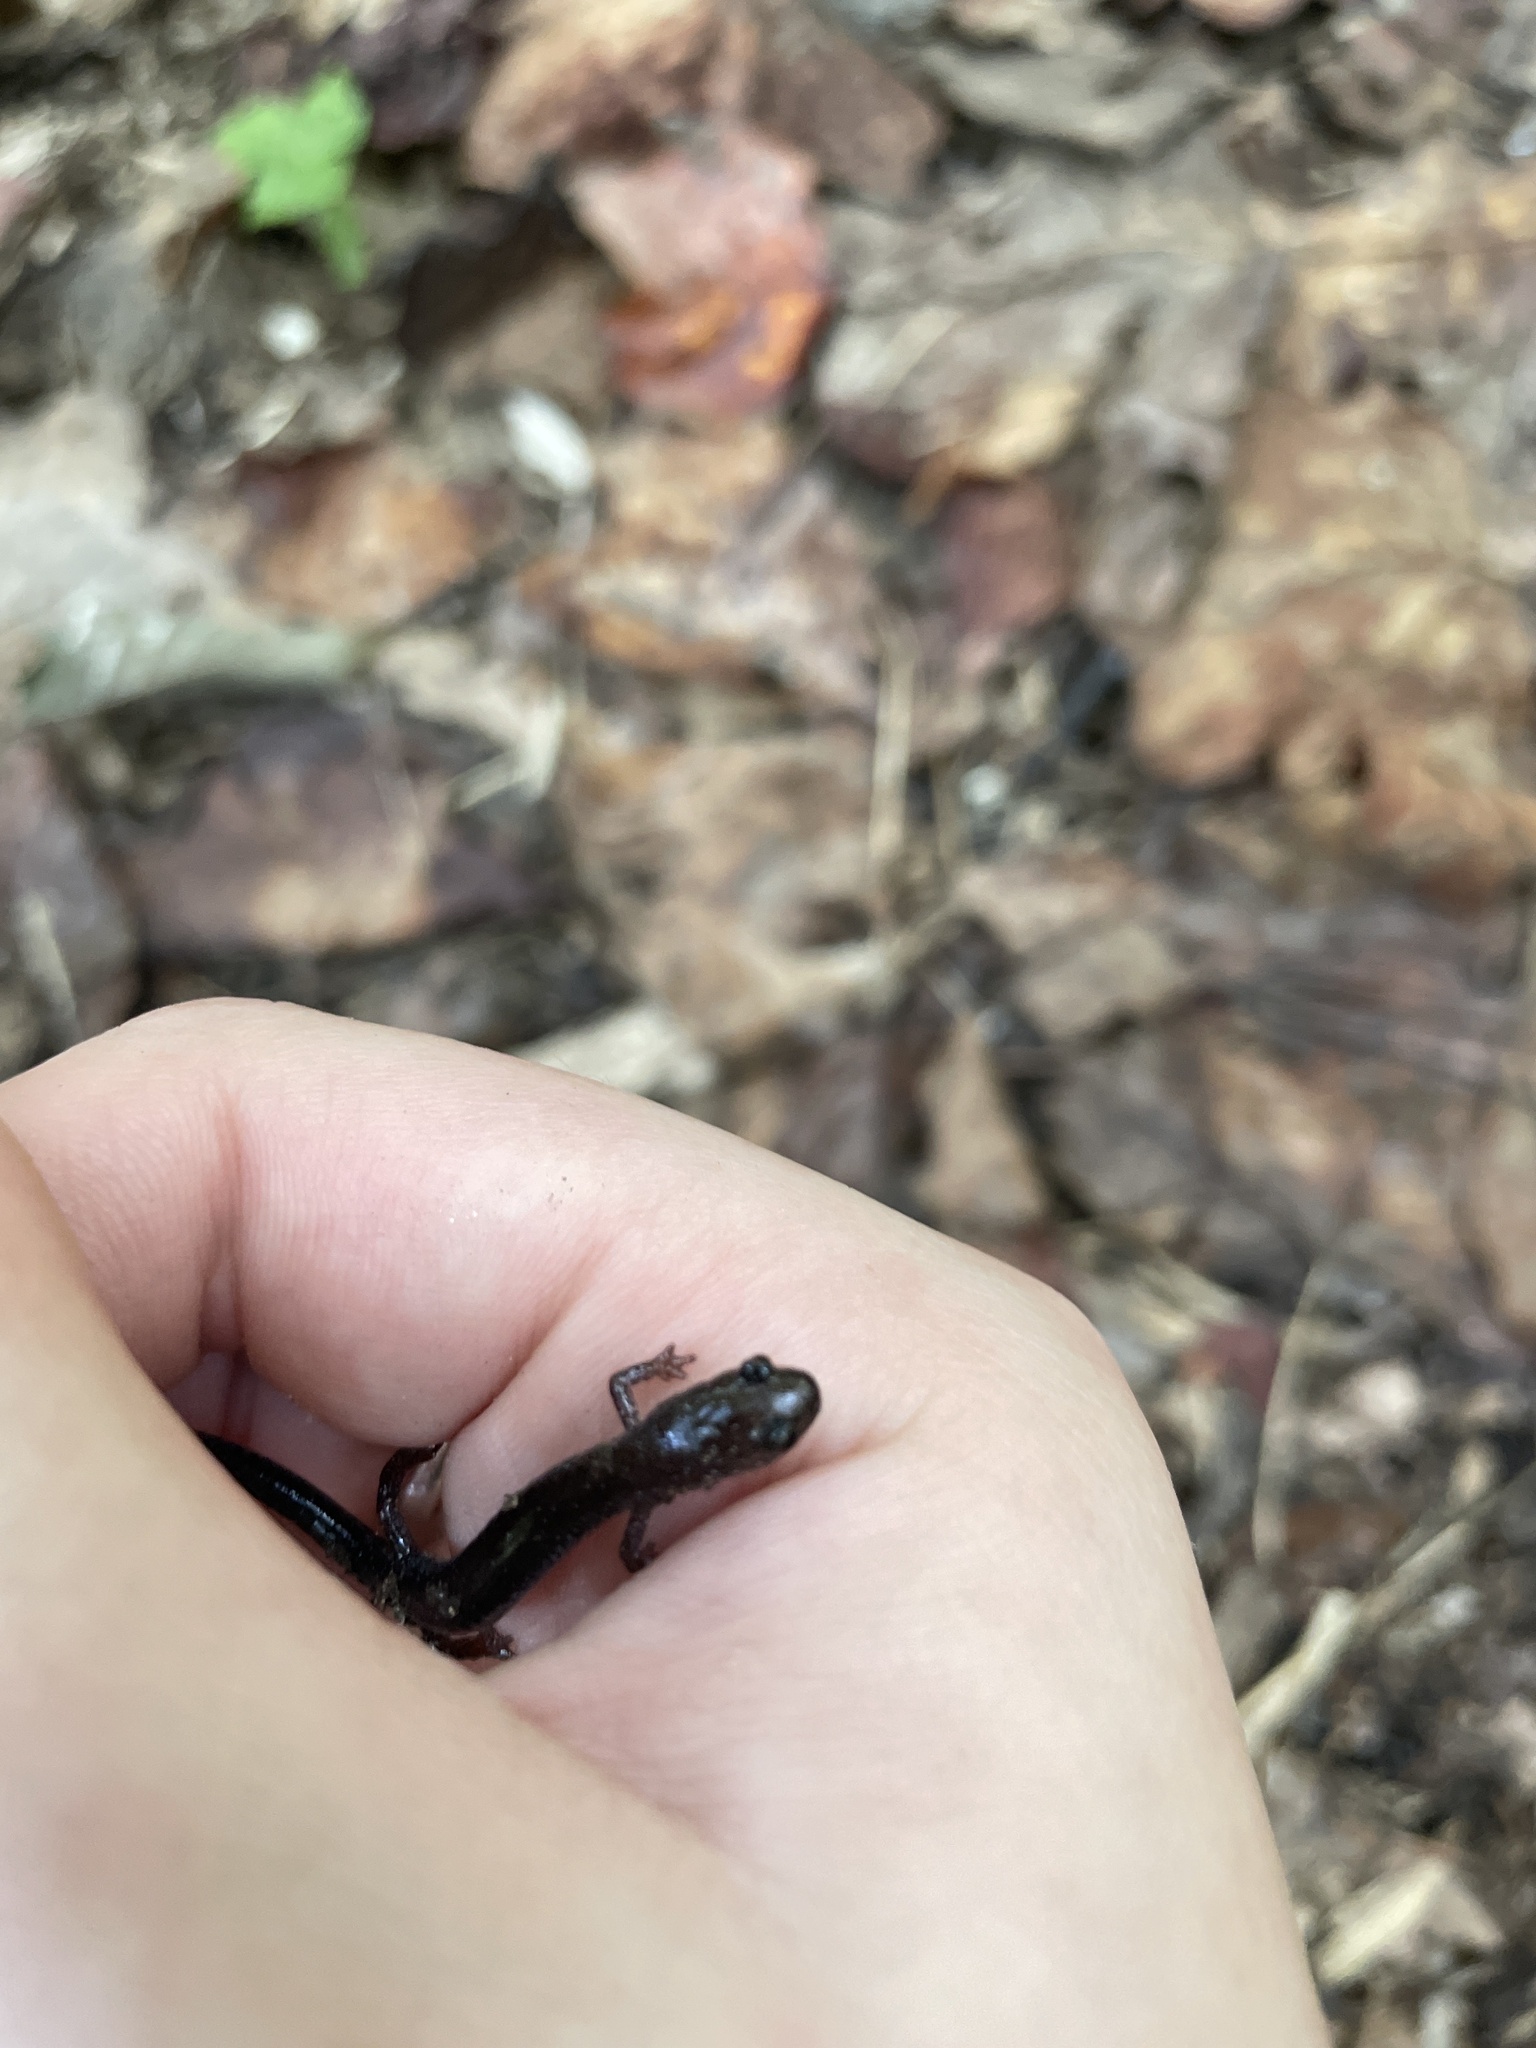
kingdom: Animalia
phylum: Chordata
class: Amphibia
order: Caudata
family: Plethodontidae
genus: Plethodon
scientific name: Plethodon cinereus
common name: Redback salamander
